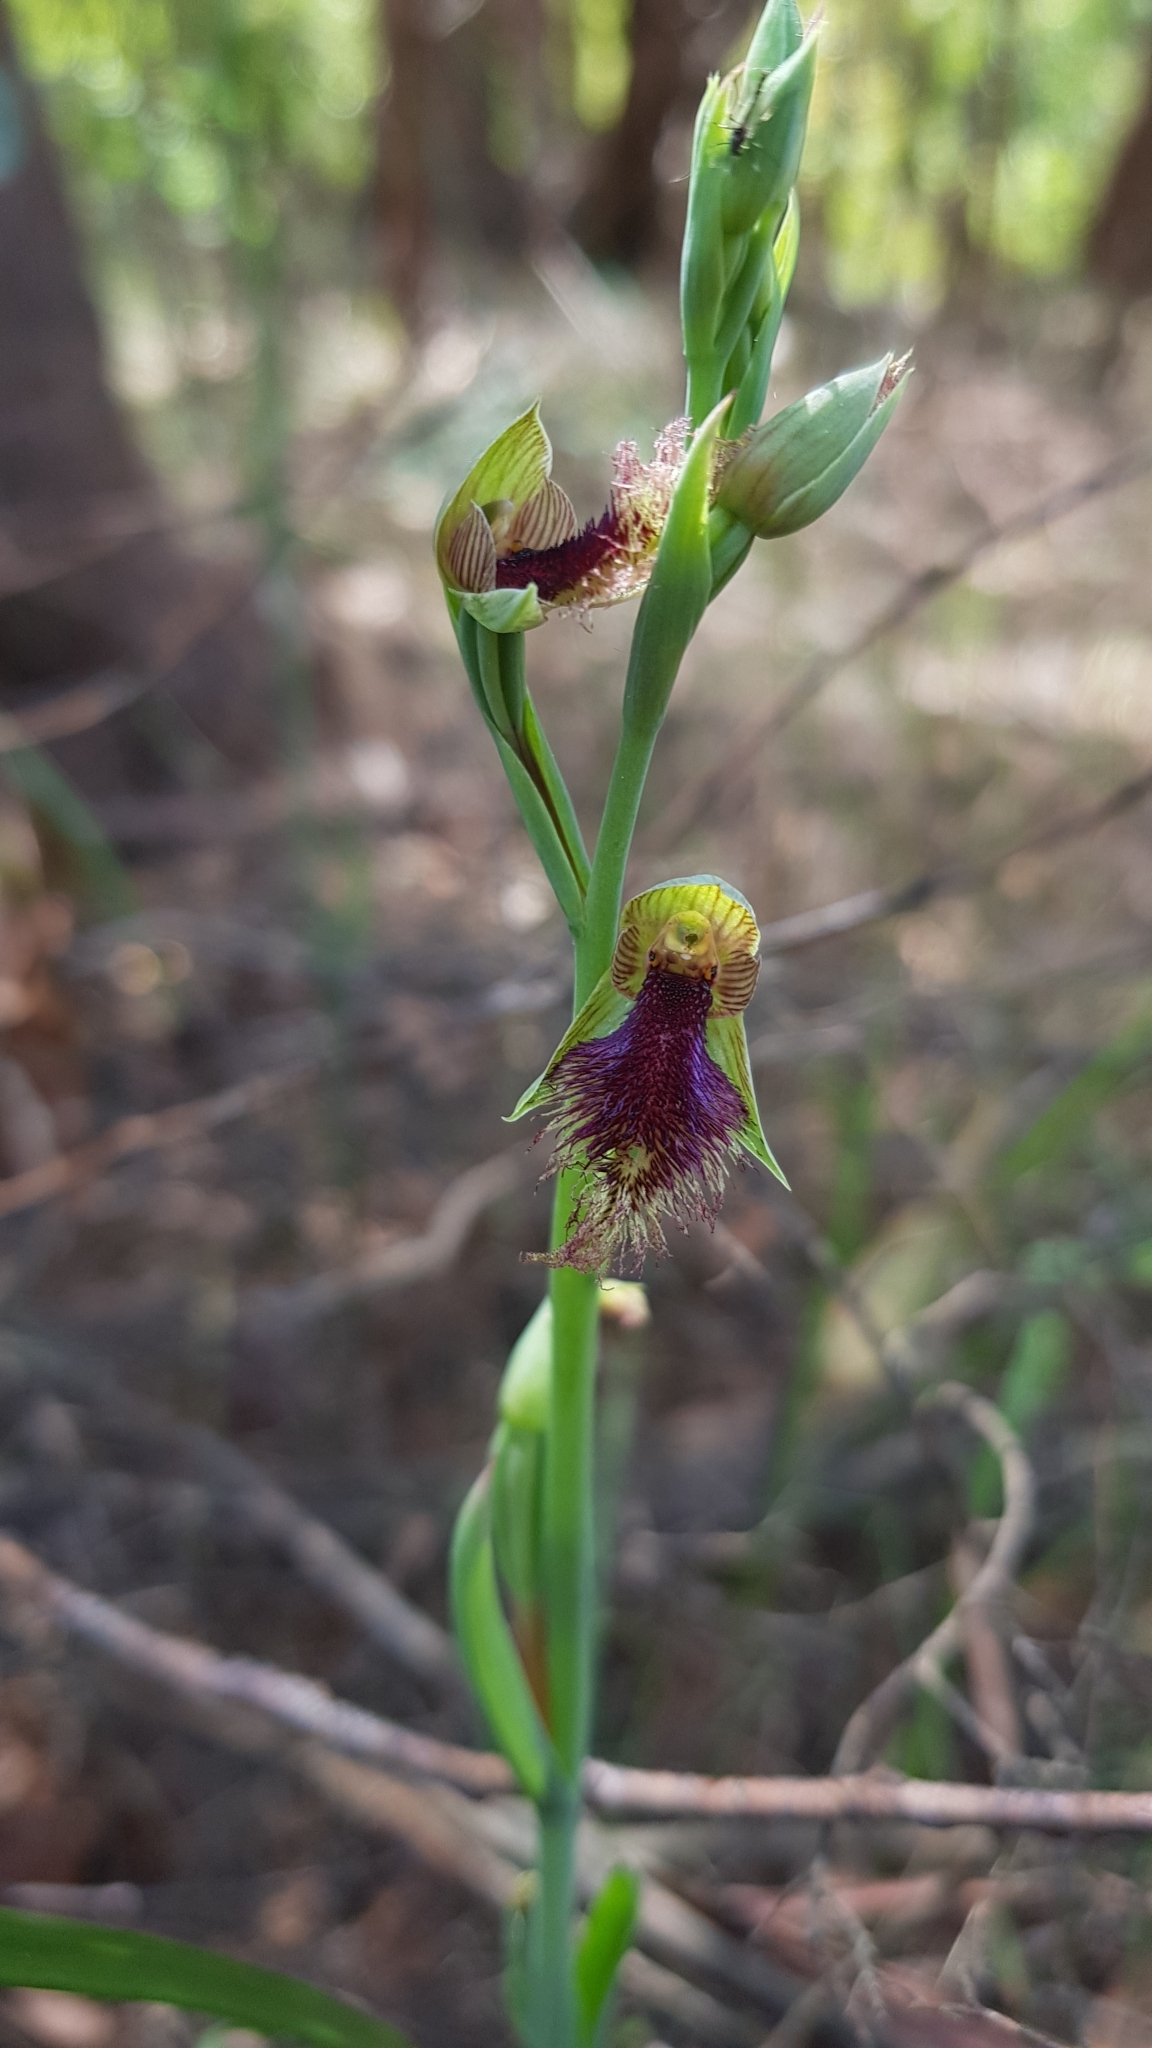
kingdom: Plantae
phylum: Tracheophyta
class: Liliopsida
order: Asparagales
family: Orchidaceae
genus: Calochilus
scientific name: Calochilus robertsonii
